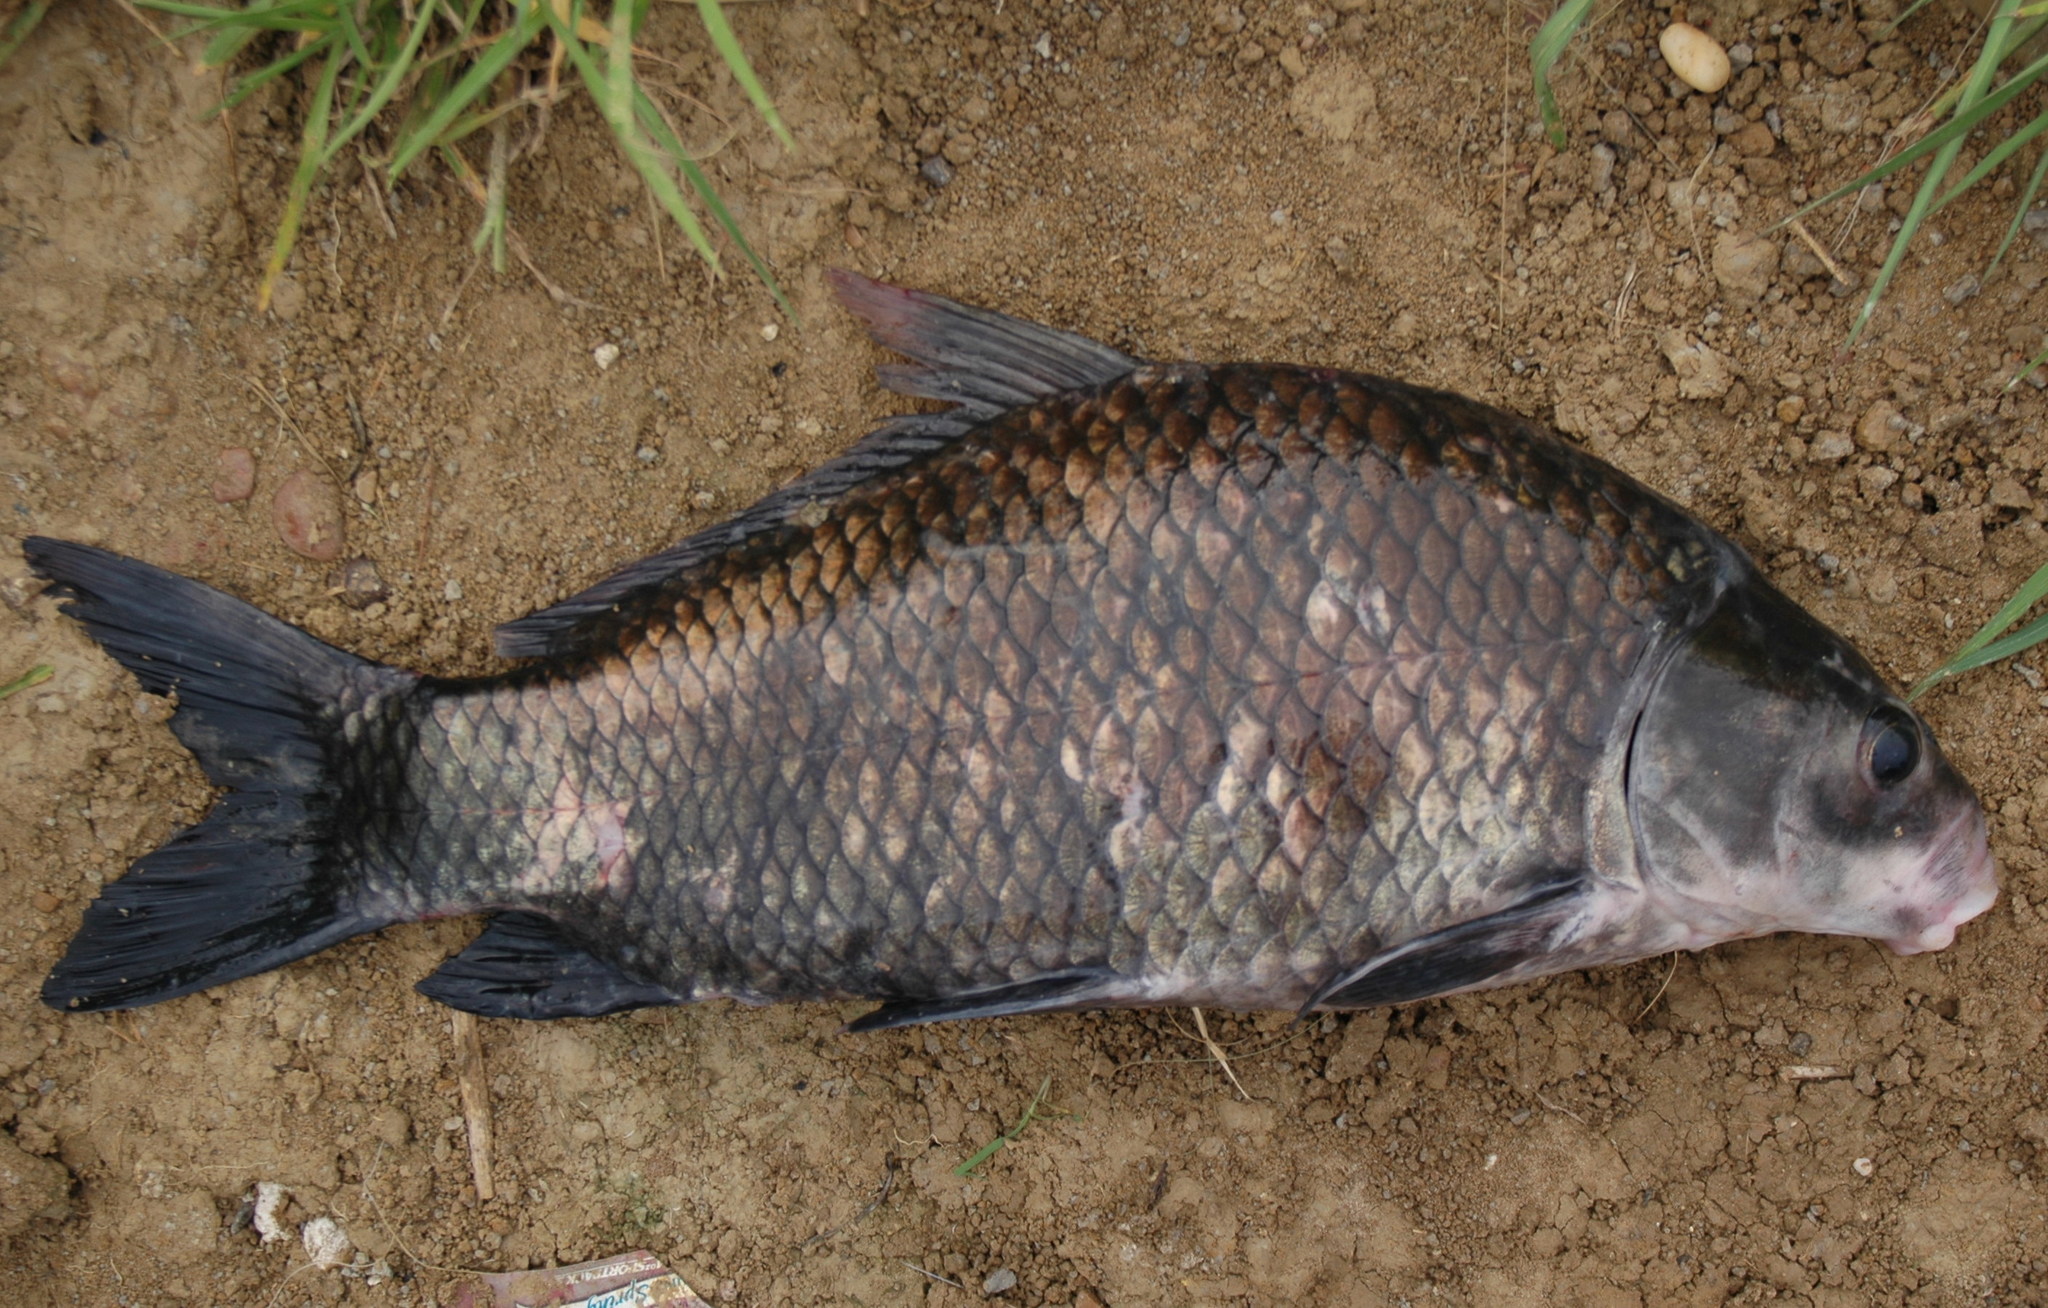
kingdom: Animalia
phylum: Chordata
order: Cypriniformes
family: Catostomidae
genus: Ictiobus
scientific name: Ictiobus bubalus
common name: Smallmouth buffalo
